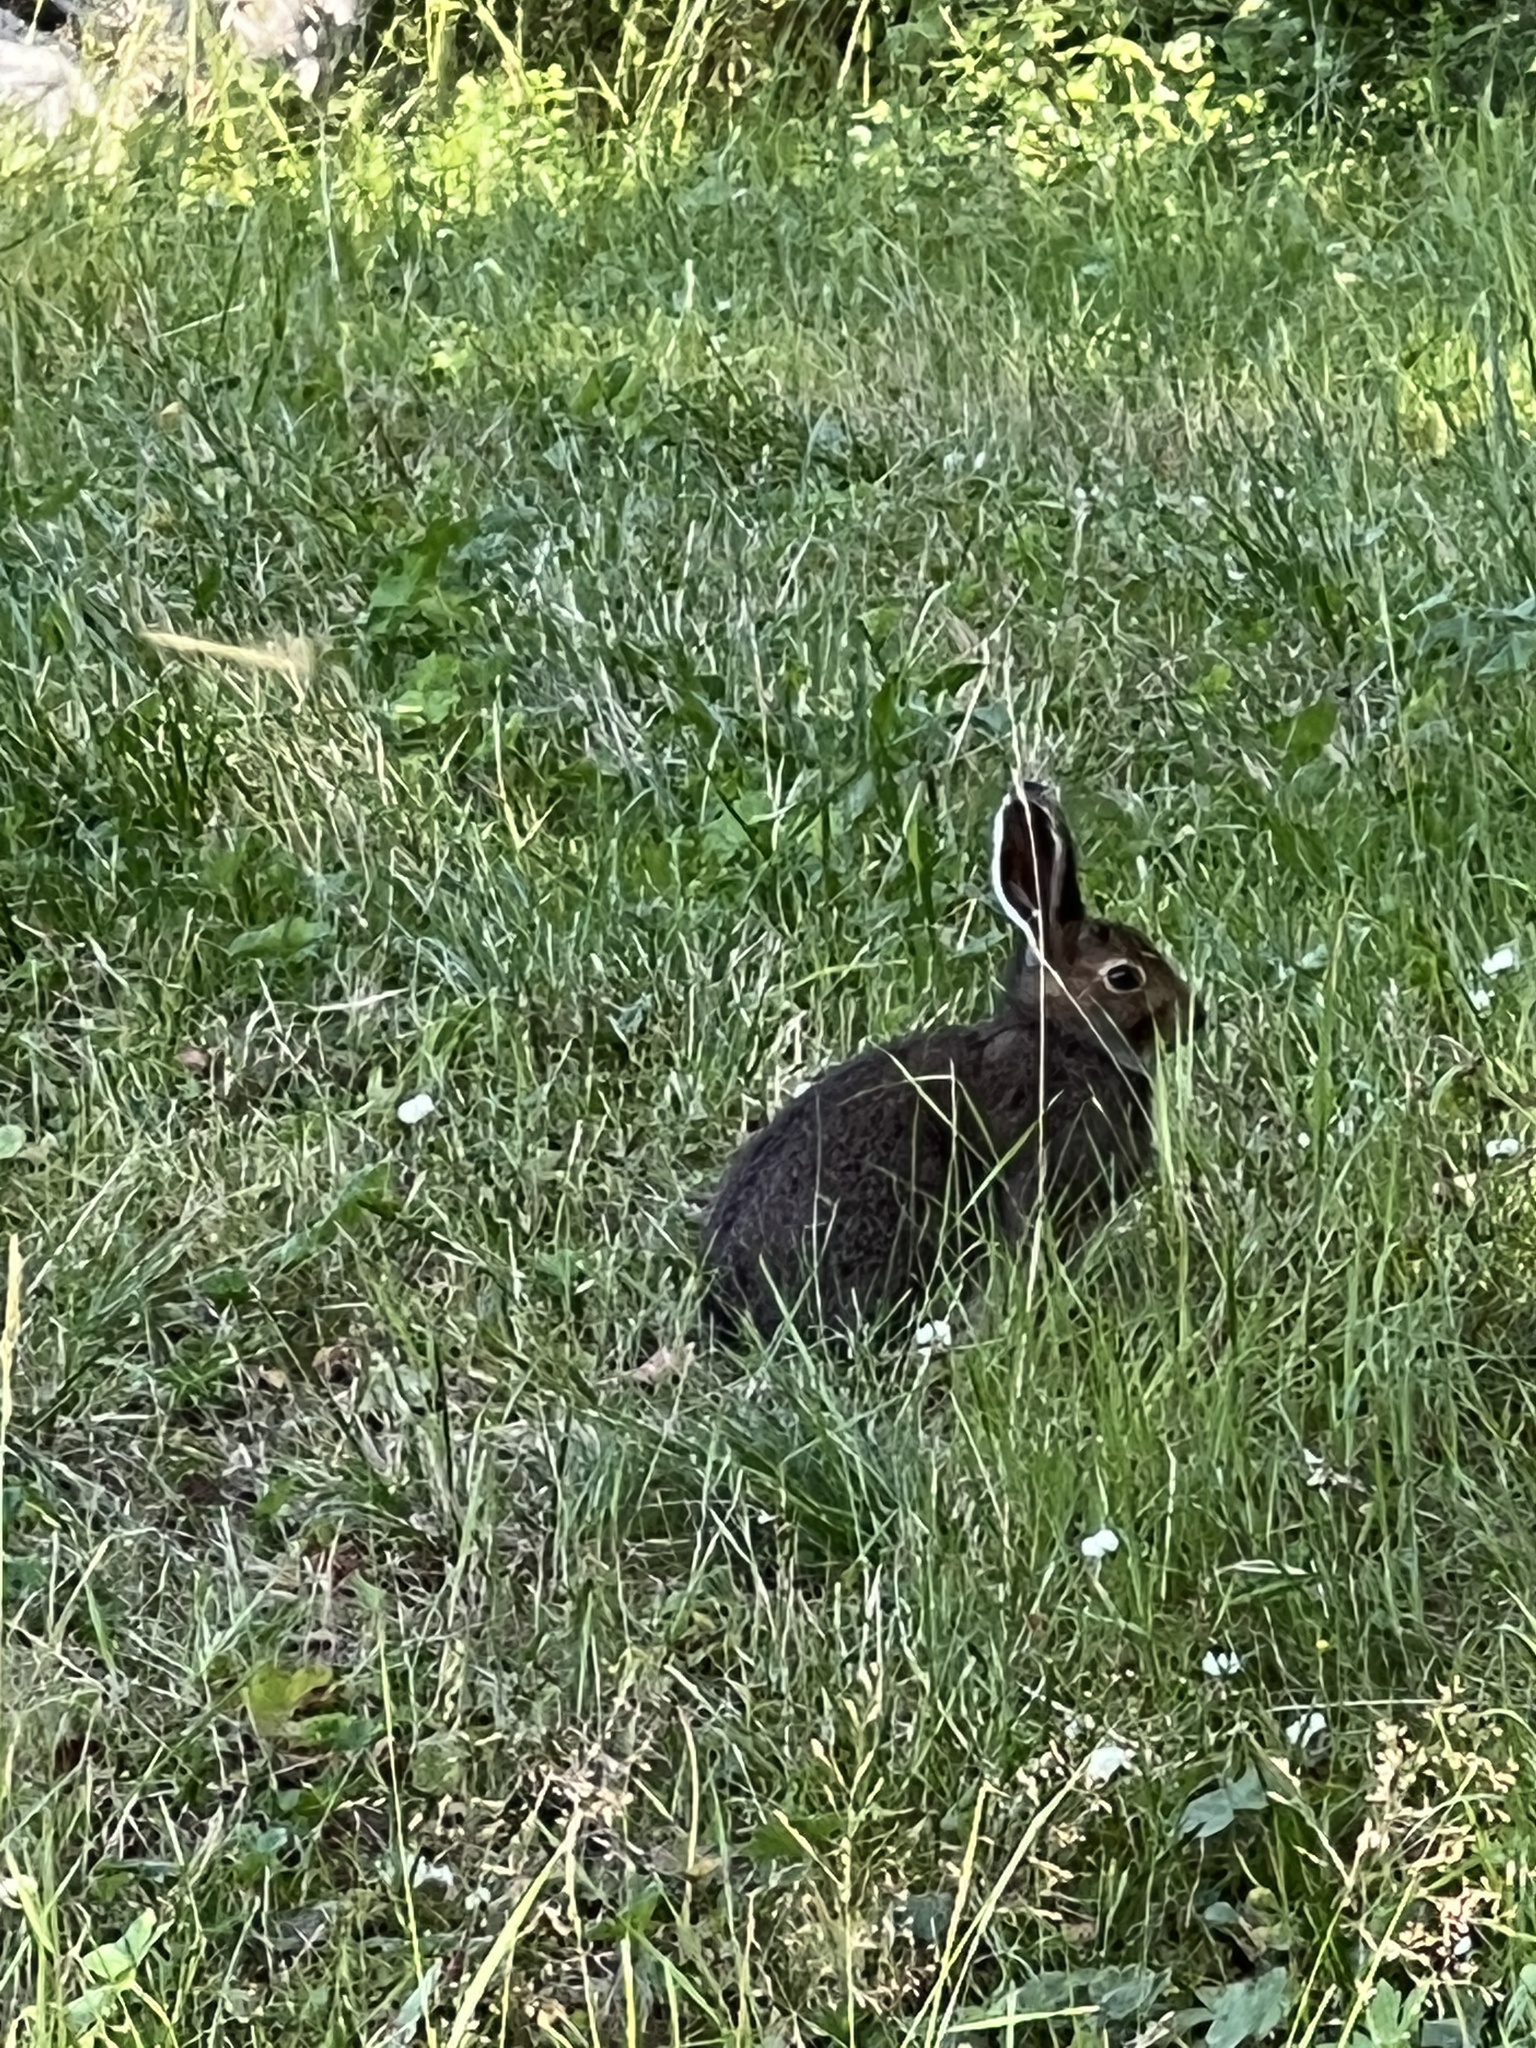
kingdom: Animalia
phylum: Chordata
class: Mammalia
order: Lagomorpha
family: Leporidae
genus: Lepus
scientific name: Lepus timidus
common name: Mountain hare
